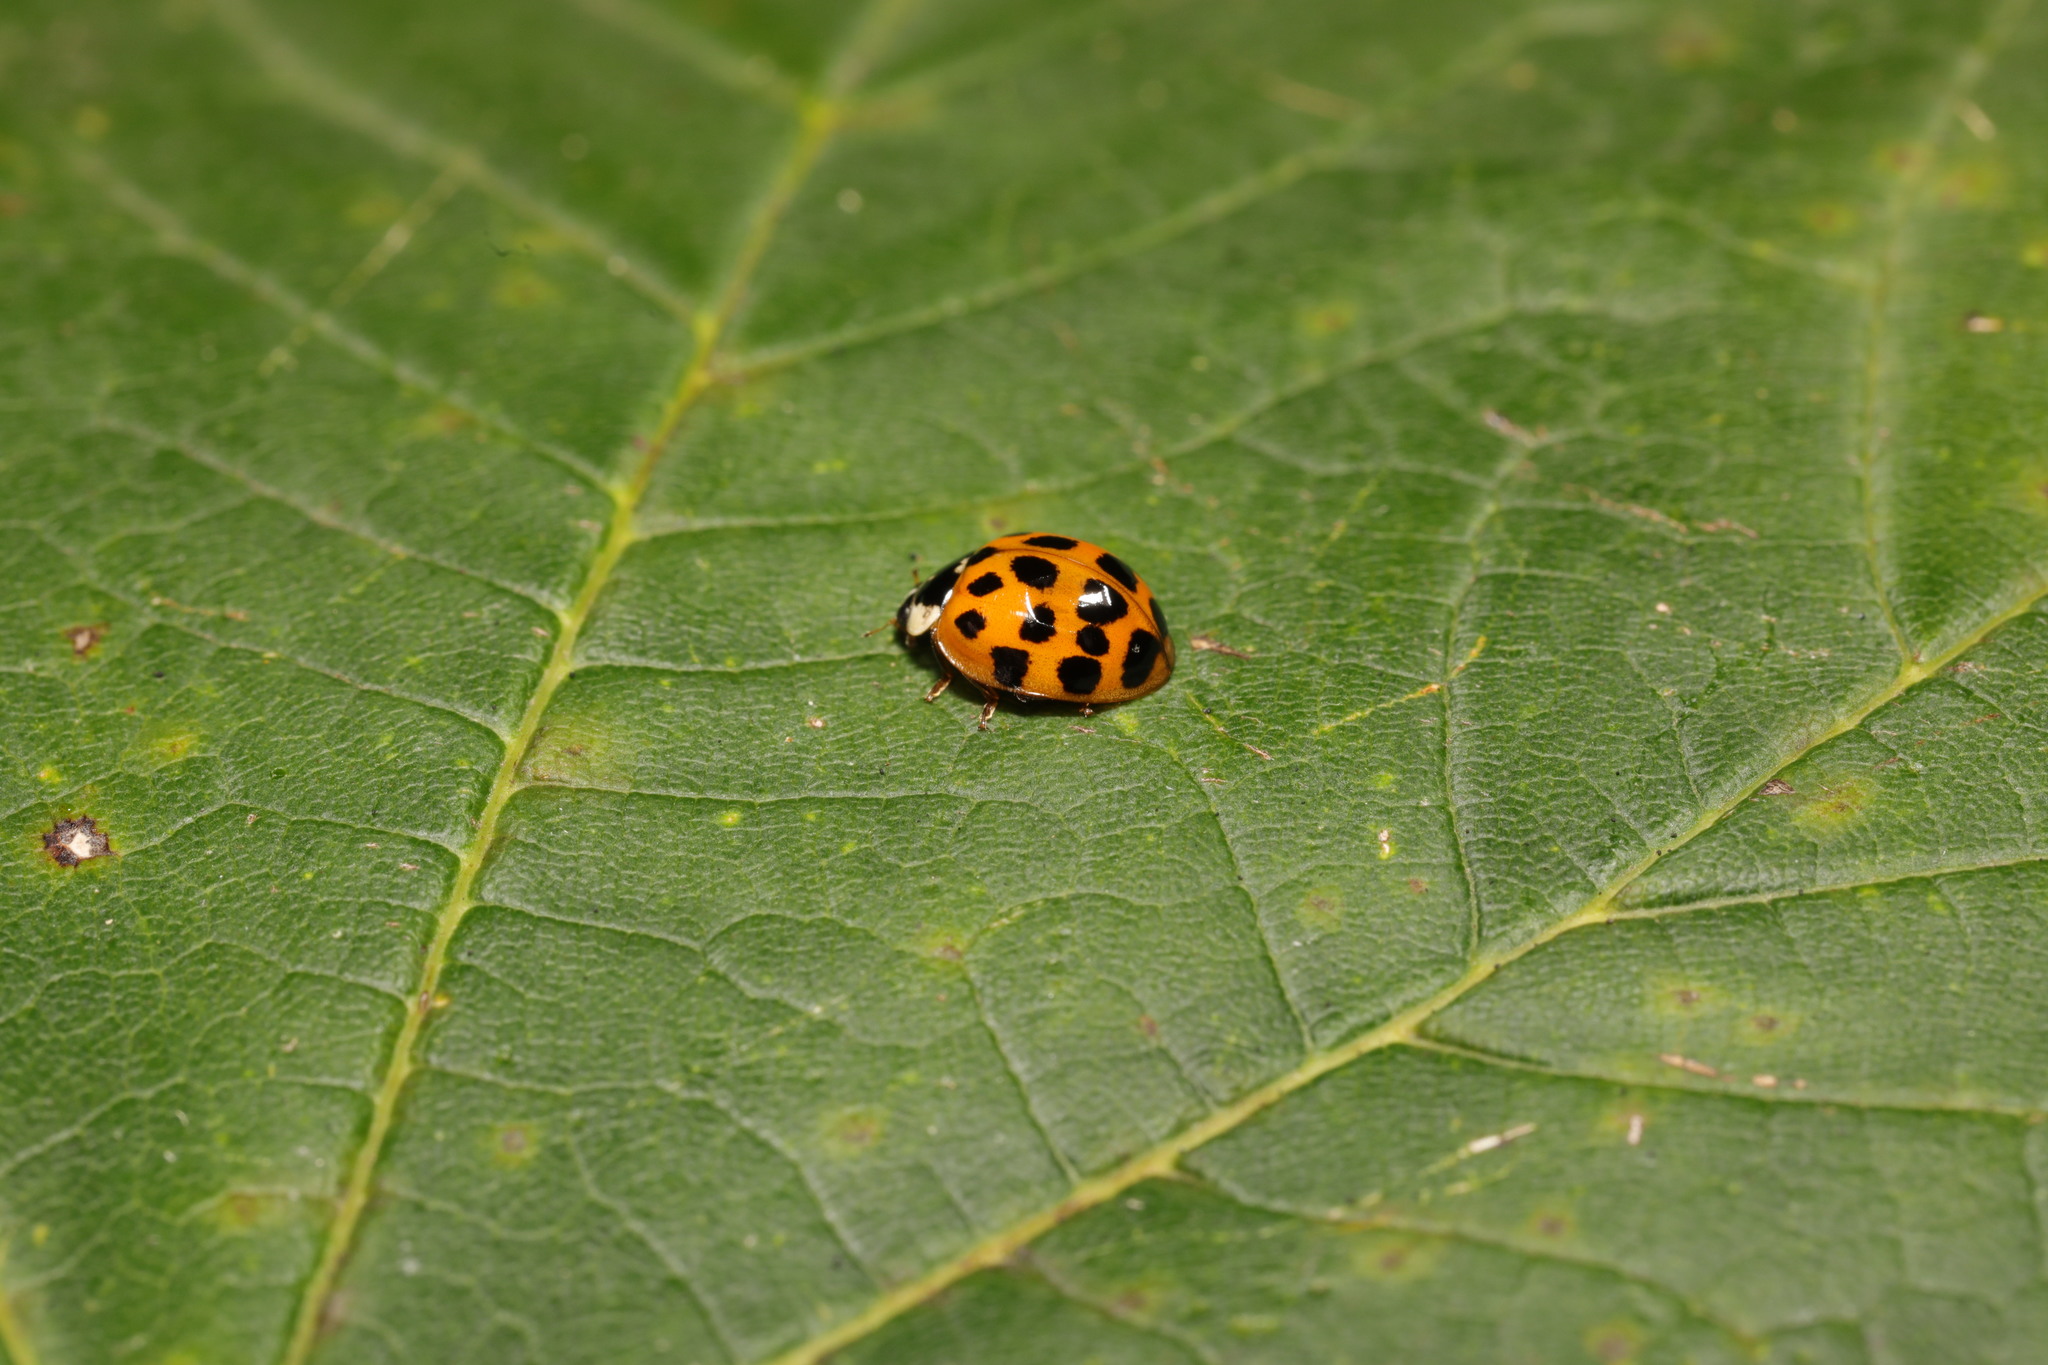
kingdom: Animalia
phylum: Arthropoda
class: Insecta
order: Coleoptera
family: Coccinellidae
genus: Harmonia
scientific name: Harmonia axyridis
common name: Harlequin ladybird
